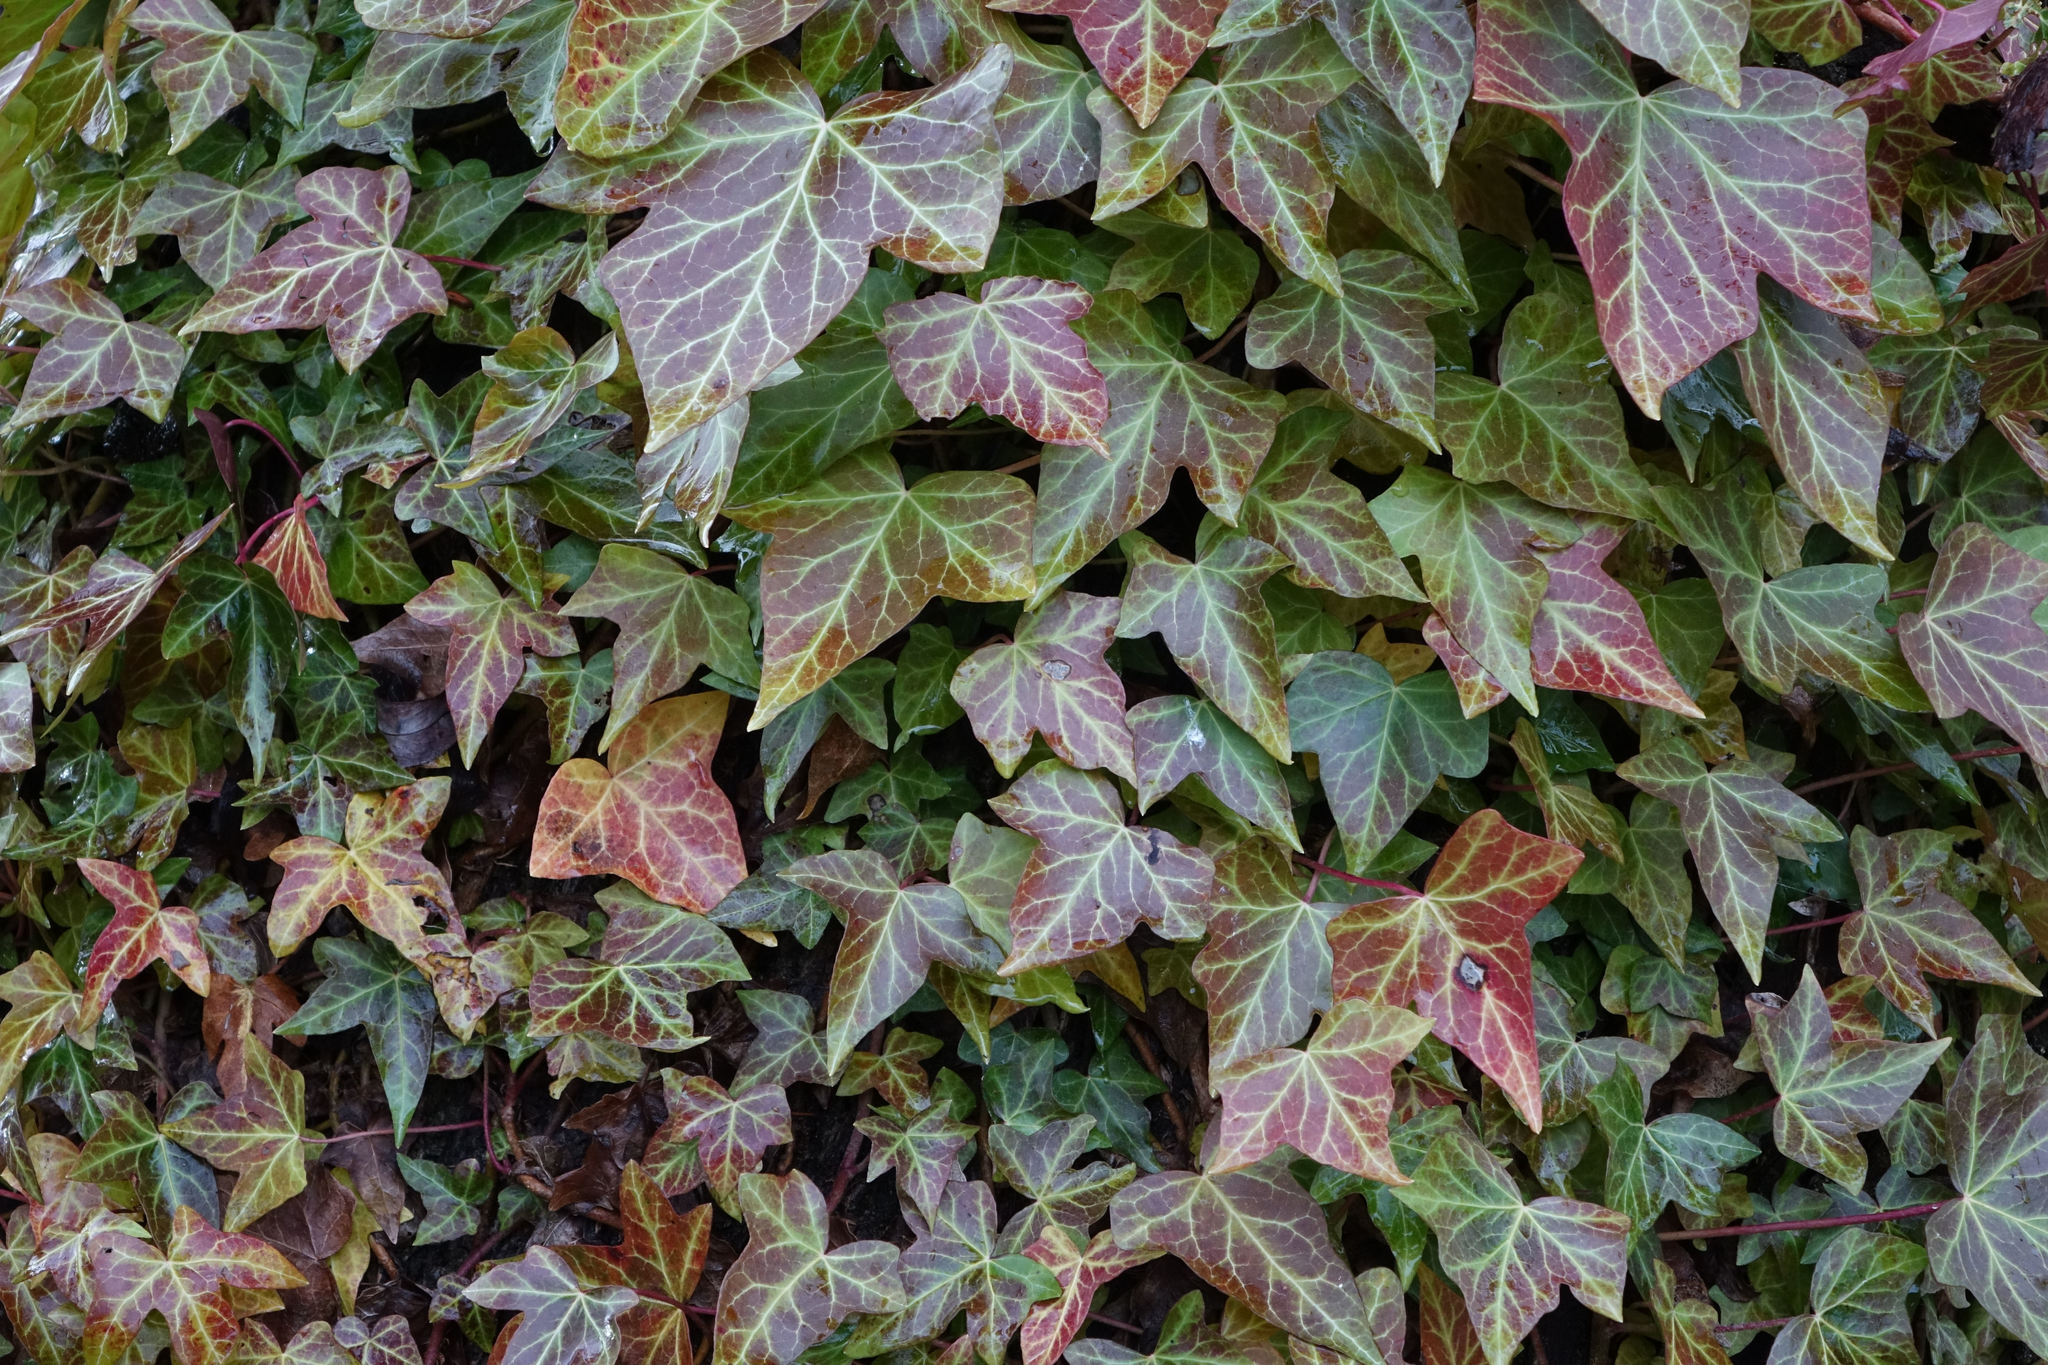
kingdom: Plantae
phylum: Tracheophyta
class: Magnoliopsida
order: Apiales
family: Araliaceae
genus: Hedera
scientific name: Hedera helix
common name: Ivy
